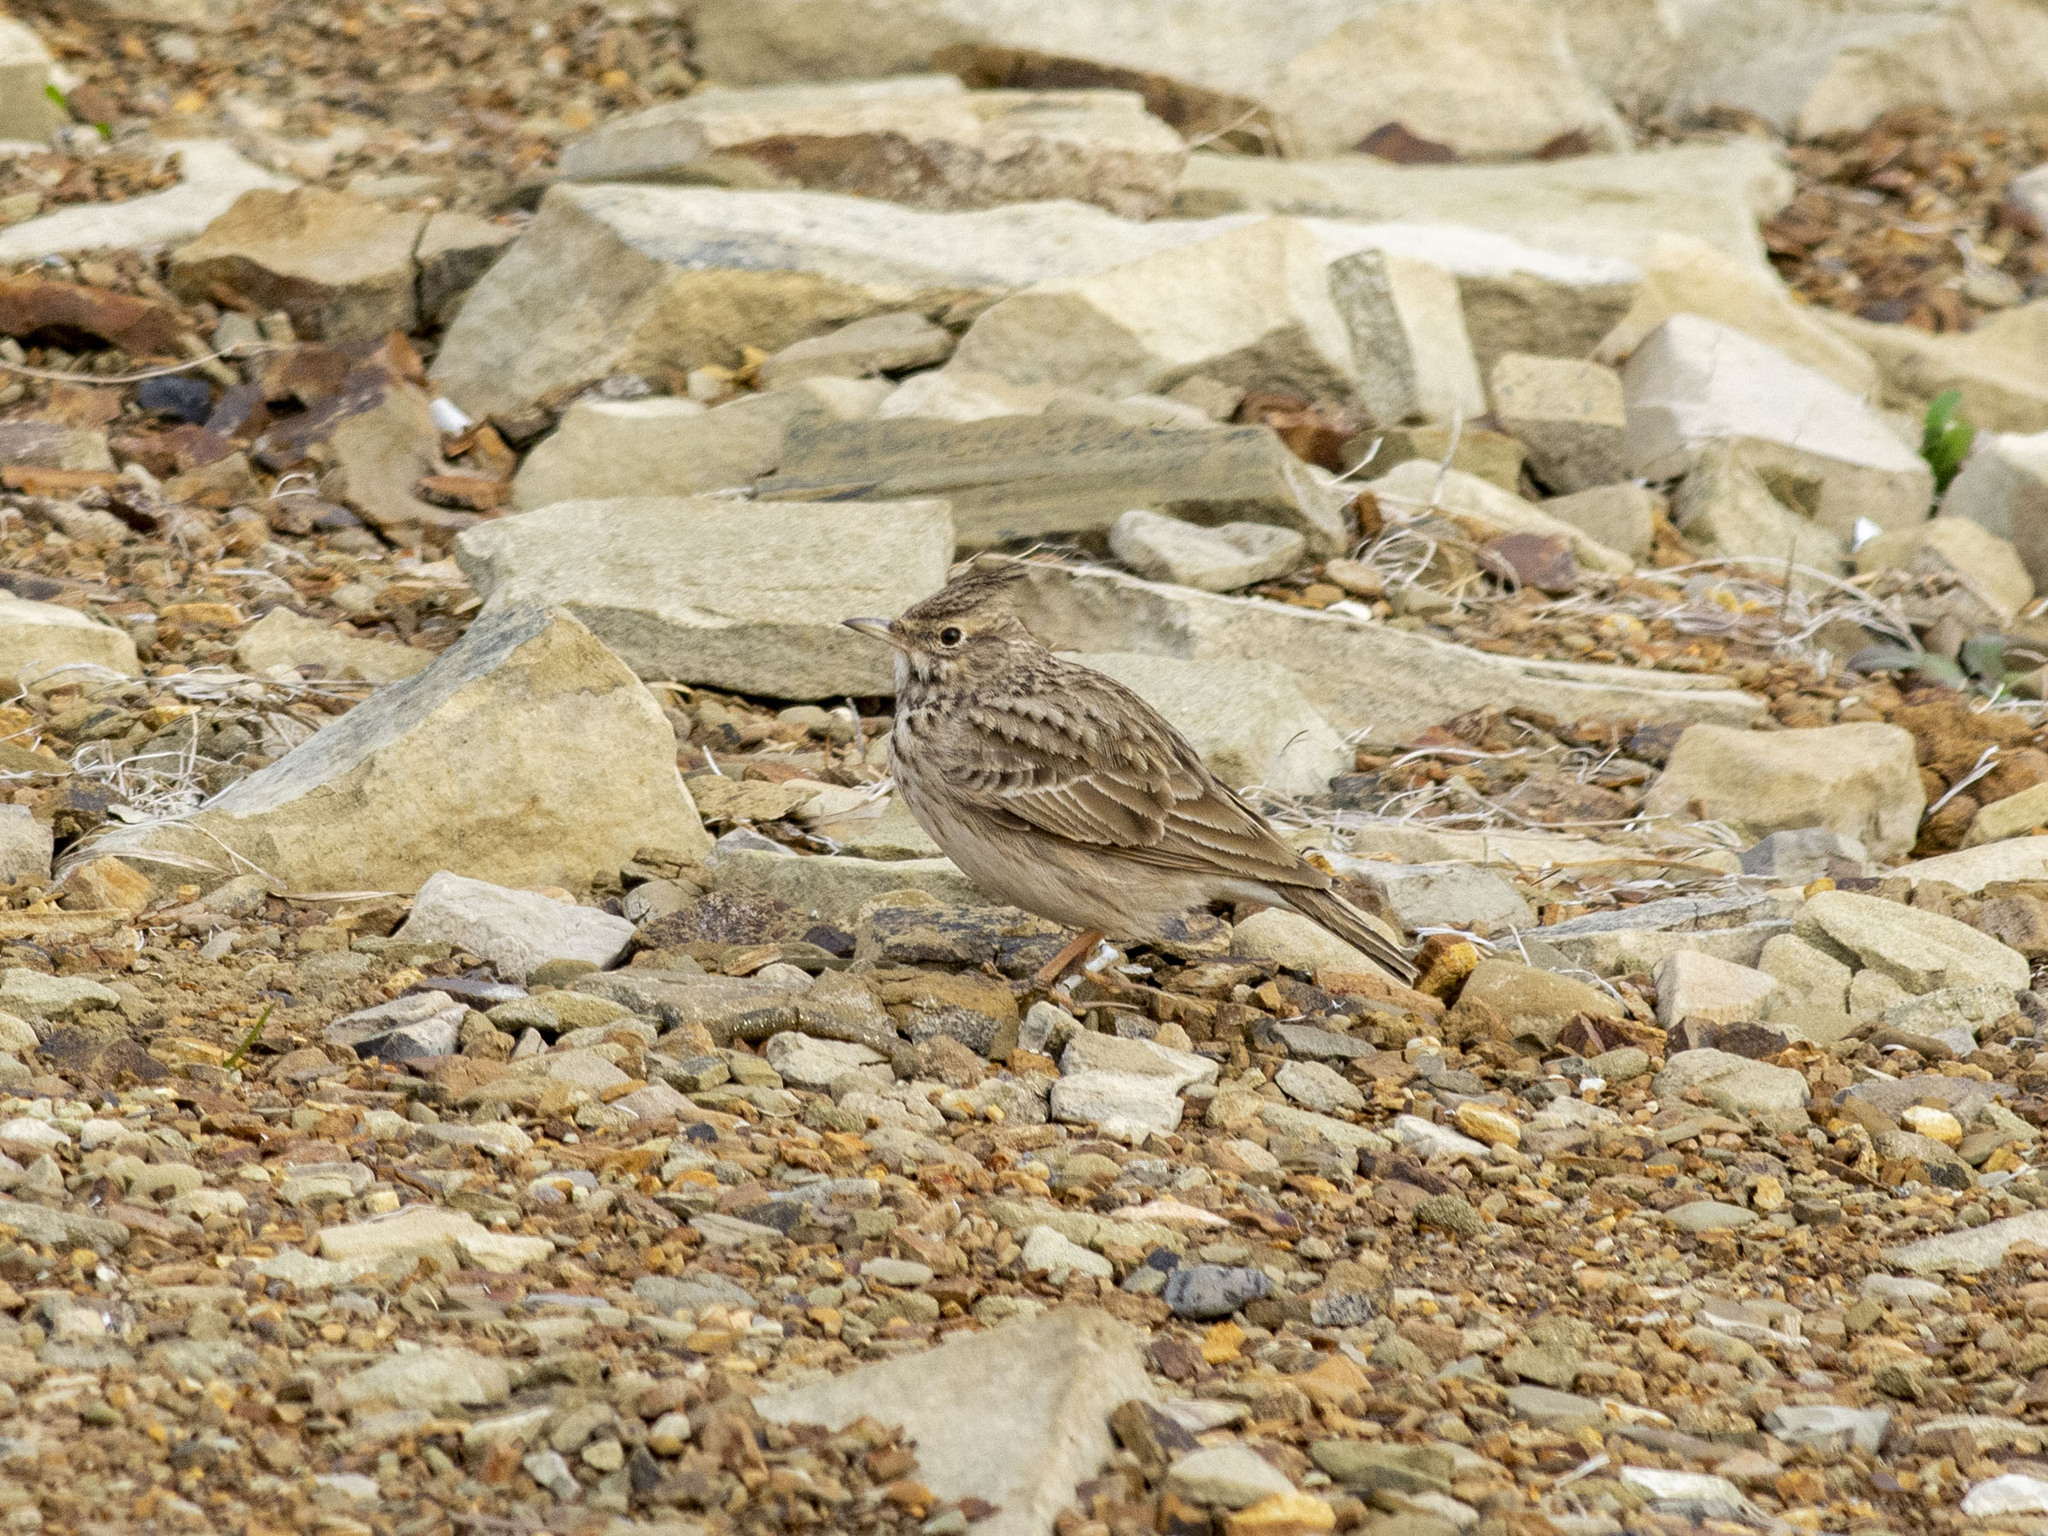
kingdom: Animalia
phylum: Chordata
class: Aves
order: Passeriformes
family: Alaudidae
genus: Galerida
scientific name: Galerida cristata
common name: Crested lark
